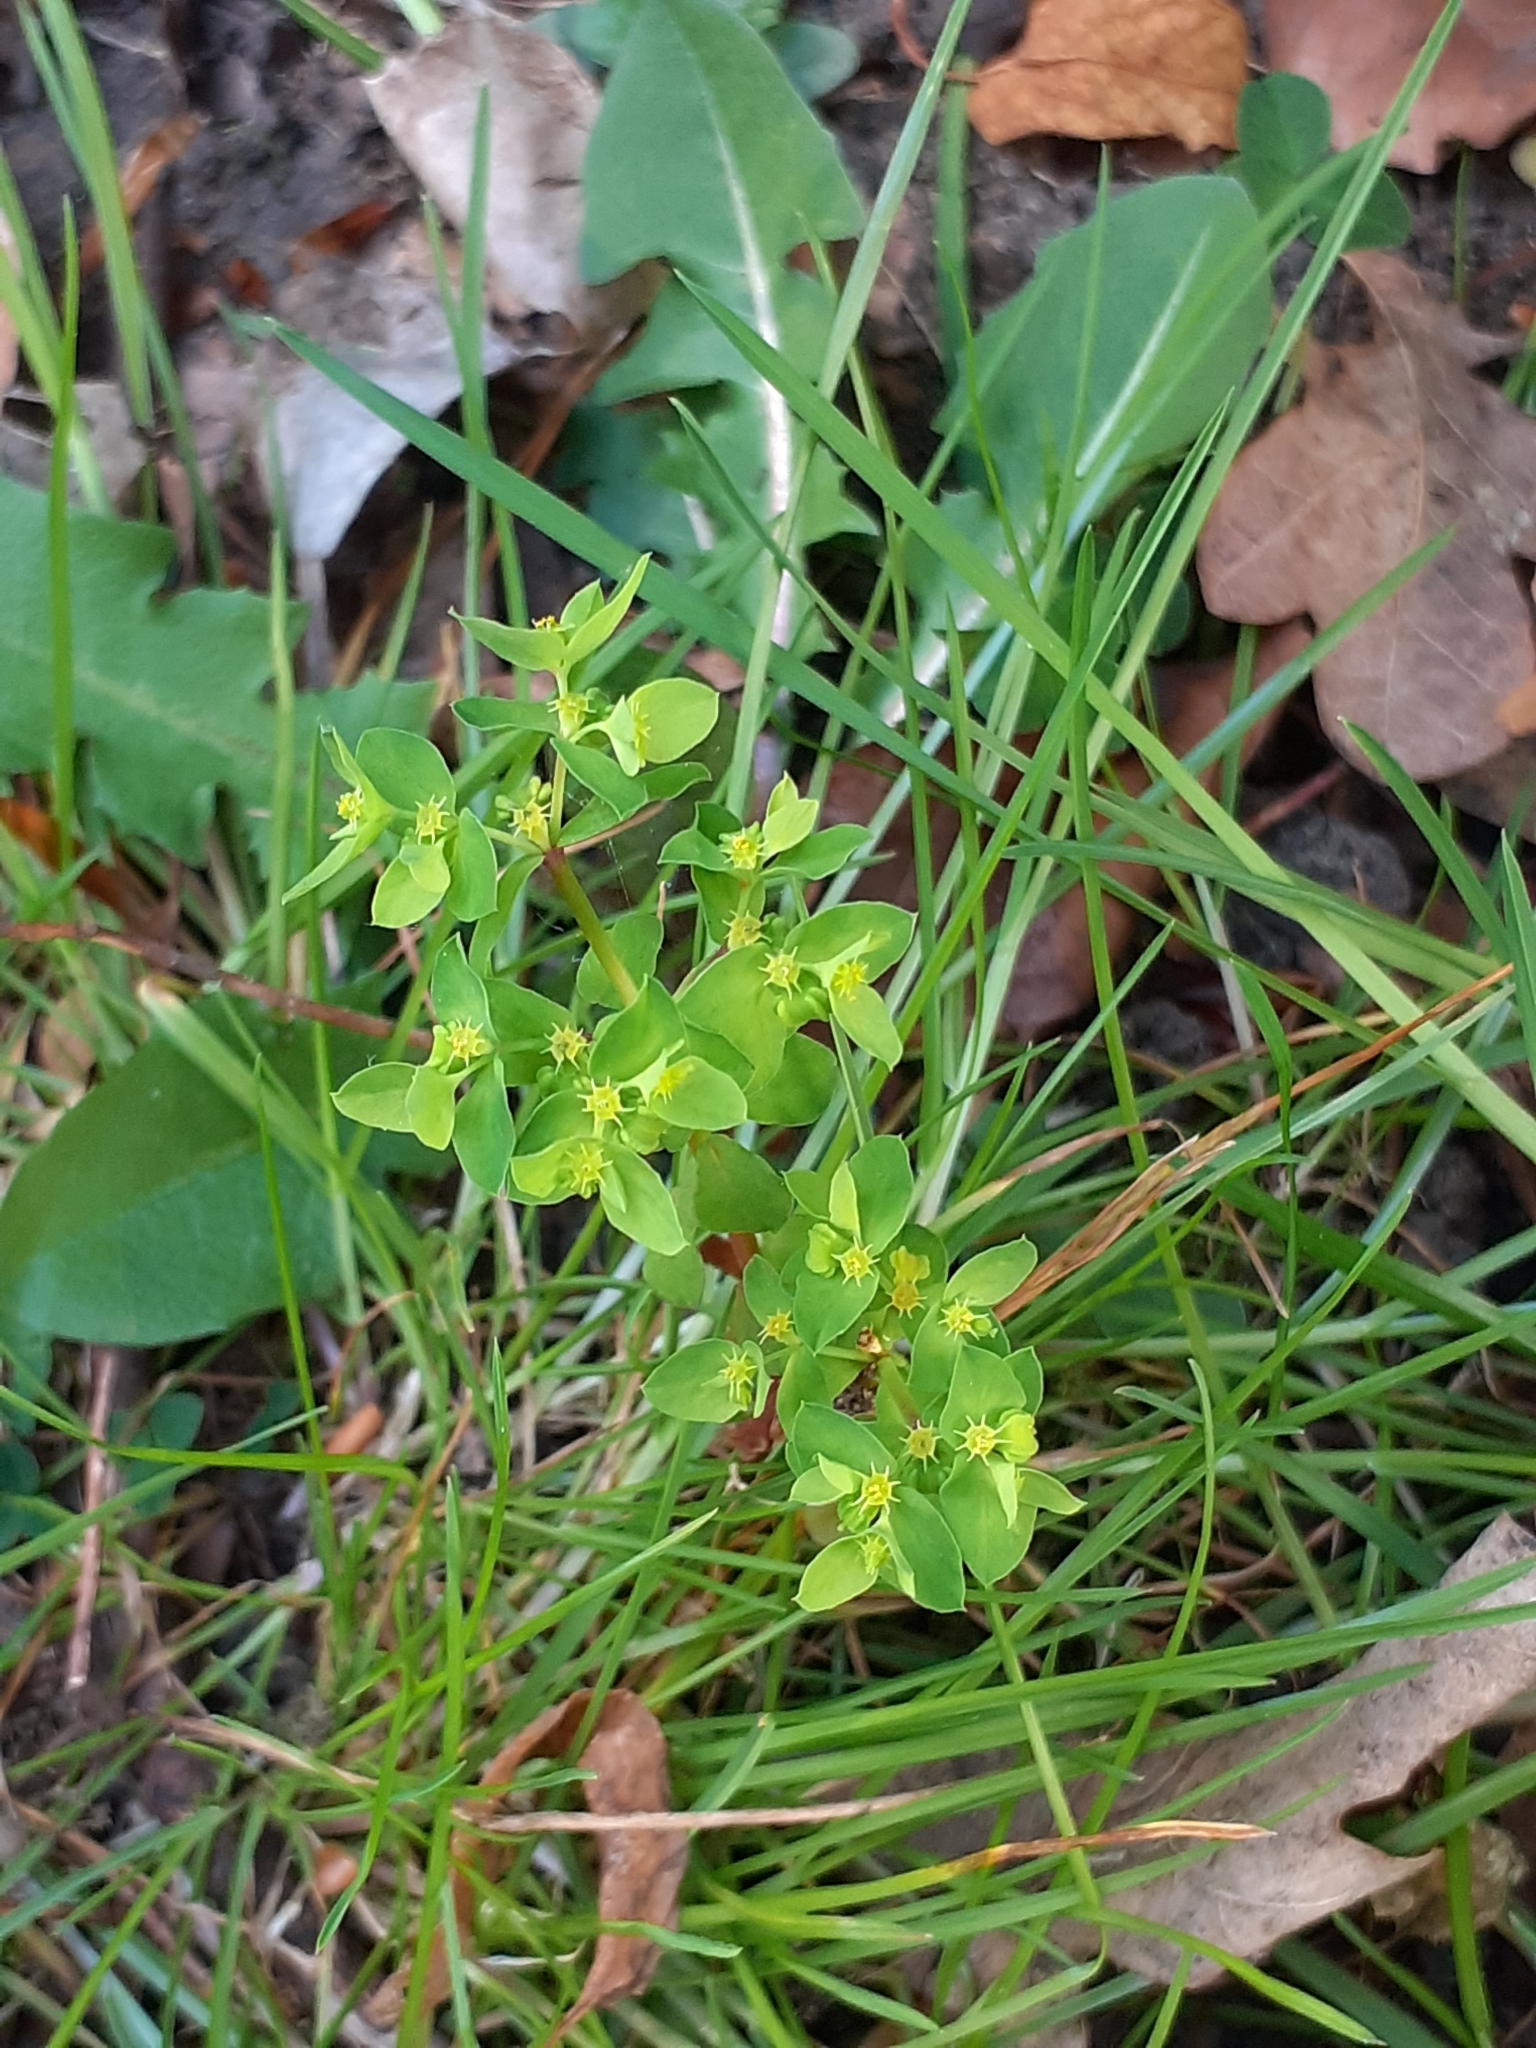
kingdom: Plantae
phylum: Tracheophyta
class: Magnoliopsida
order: Malpighiales
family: Euphorbiaceae
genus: Euphorbia
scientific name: Euphorbia peplus
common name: Petty spurge
